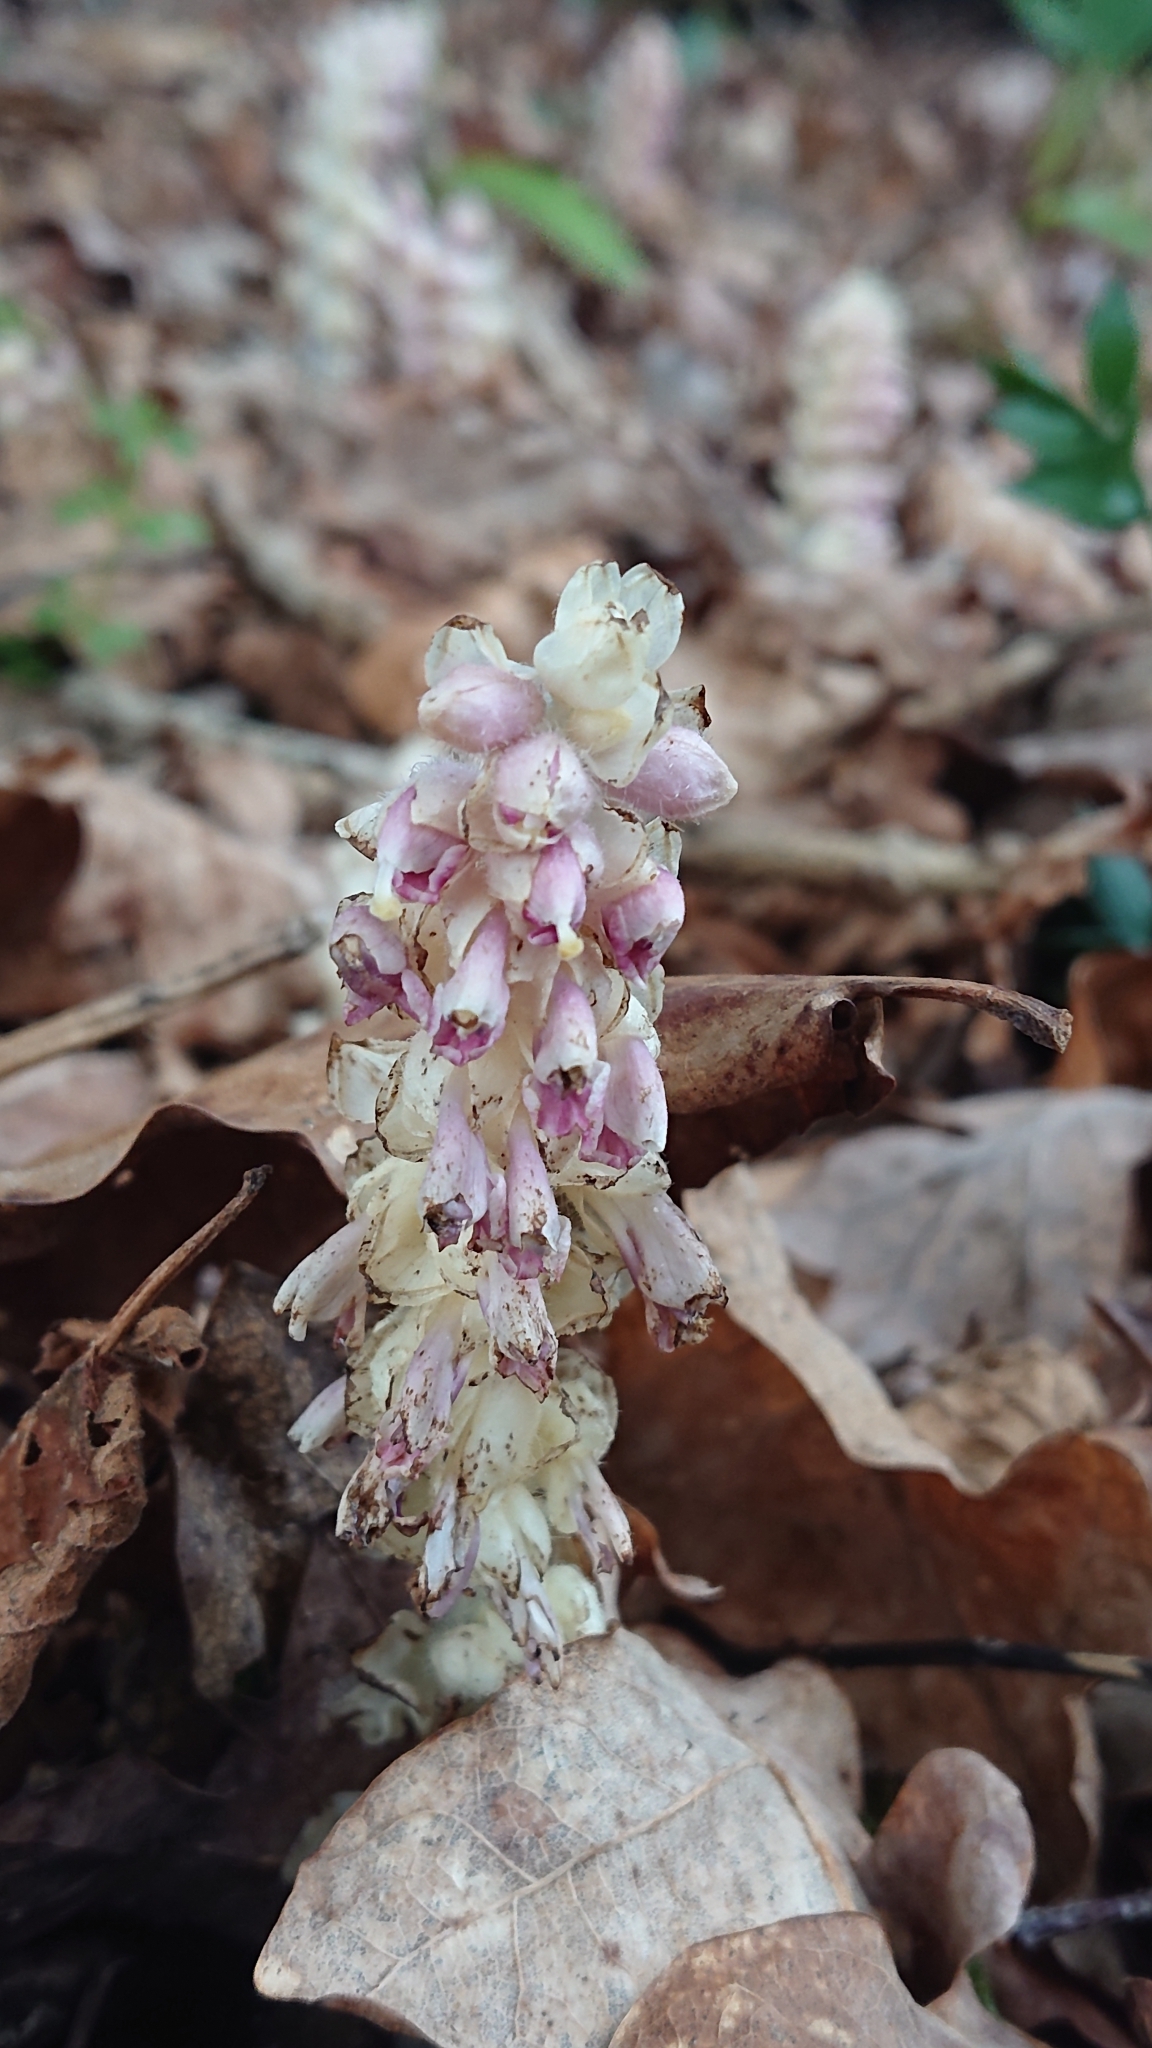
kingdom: Plantae
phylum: Tracheophyta
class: Magnoliopsida
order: Lamiales
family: Orobanchaceae
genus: Lathraea
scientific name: Lathraea squamaria
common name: Toothwort
